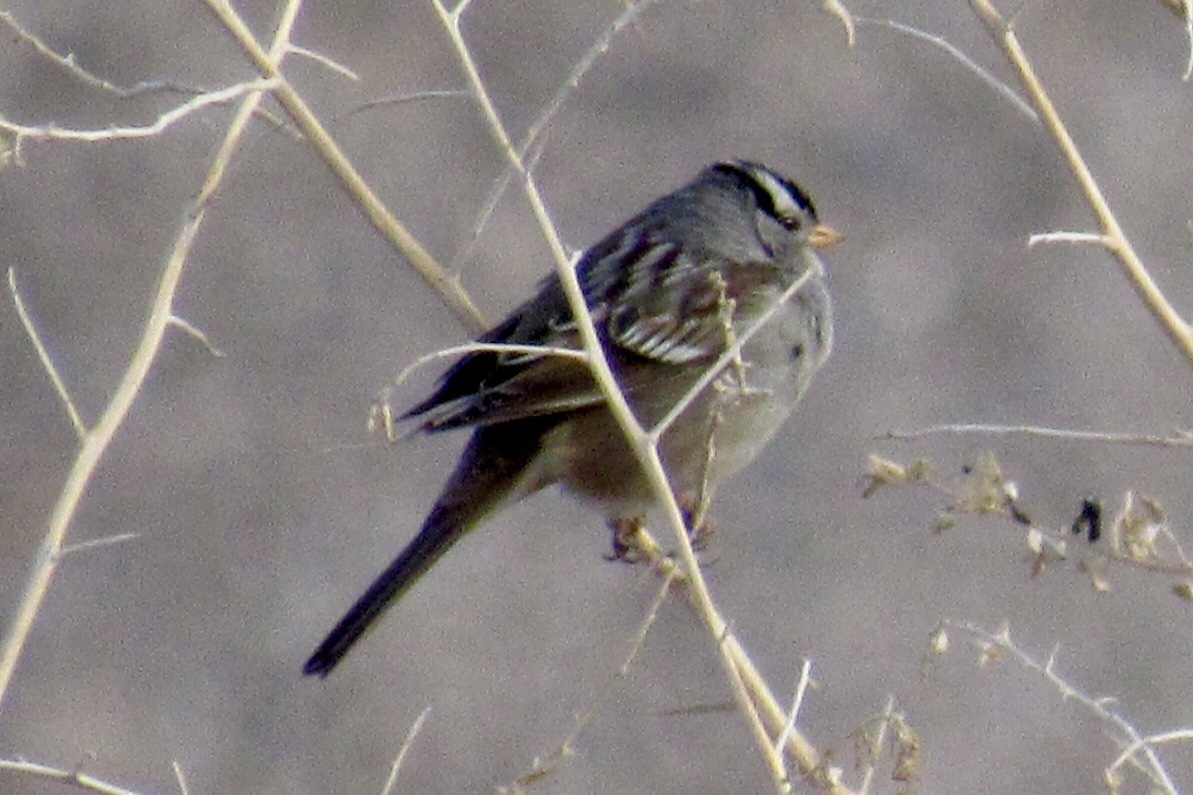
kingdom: Animalia
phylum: Chordata
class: Aves
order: Passeriformes
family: Passerellidae
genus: Zonotrichia
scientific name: Zonotrichia leucophrys
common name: White-crowned sparrow
